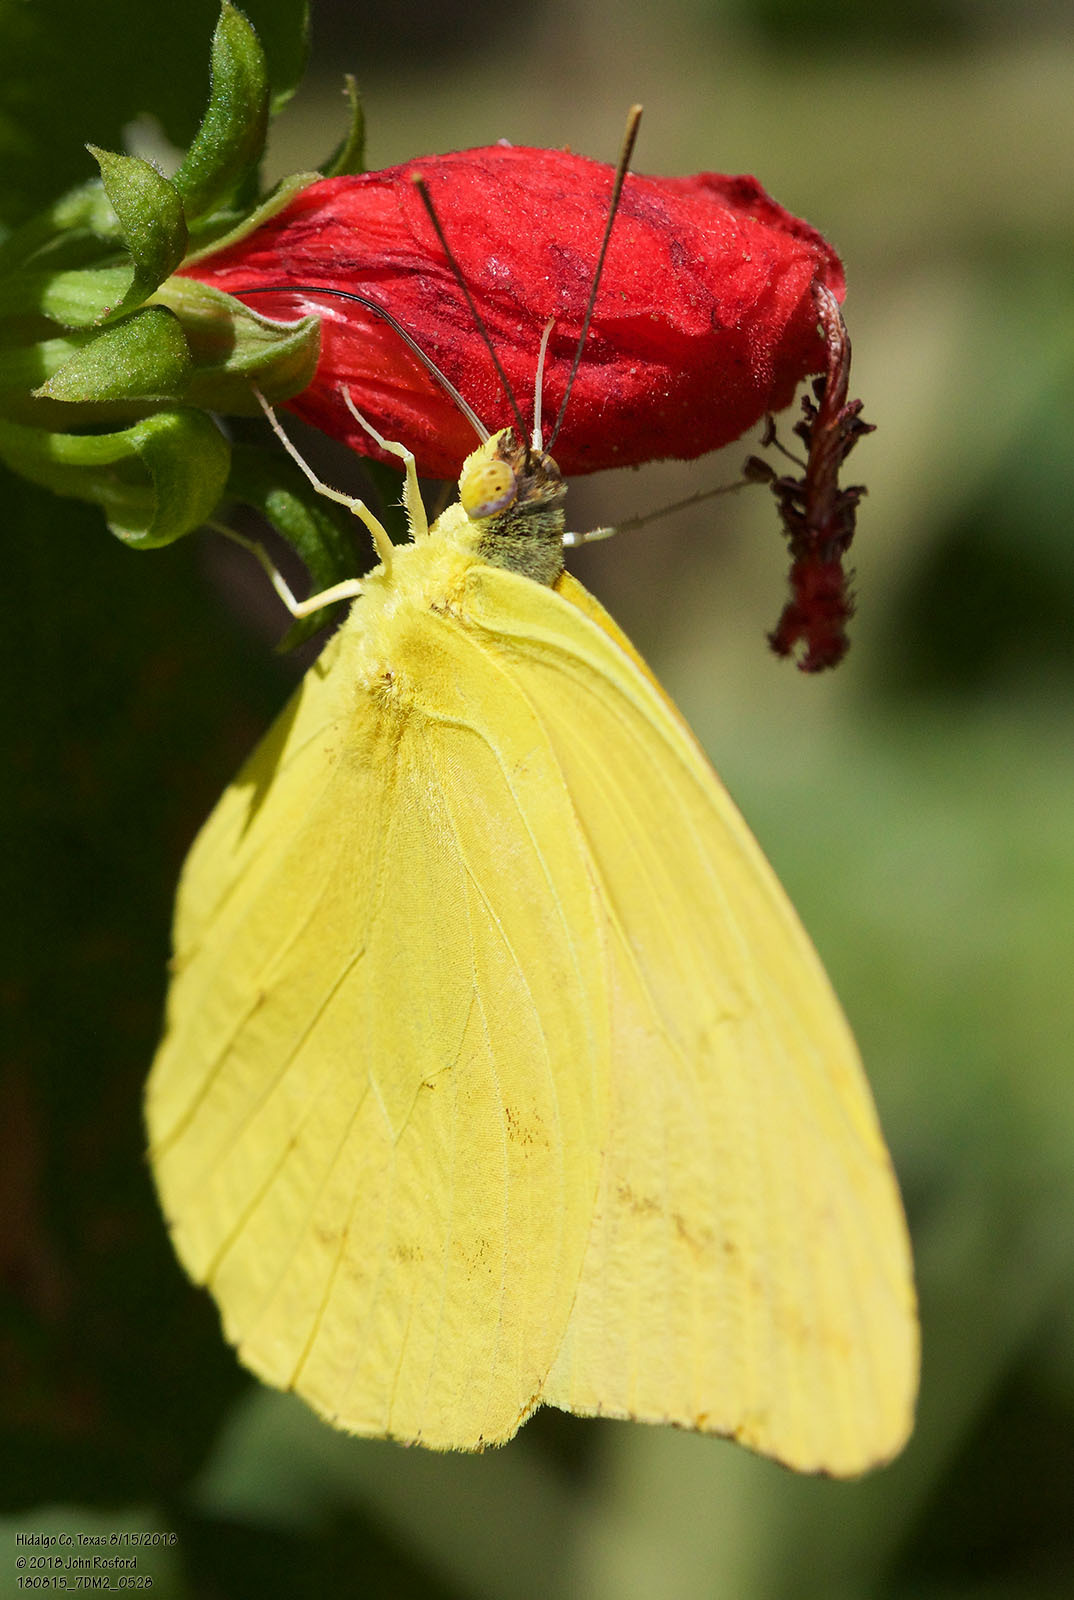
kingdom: Animalia
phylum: Arthropoda
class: Insecta
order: Lepidoptera
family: Pieridae
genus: Phoebis
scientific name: Phoebis agarithe
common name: Large orange sulphur
